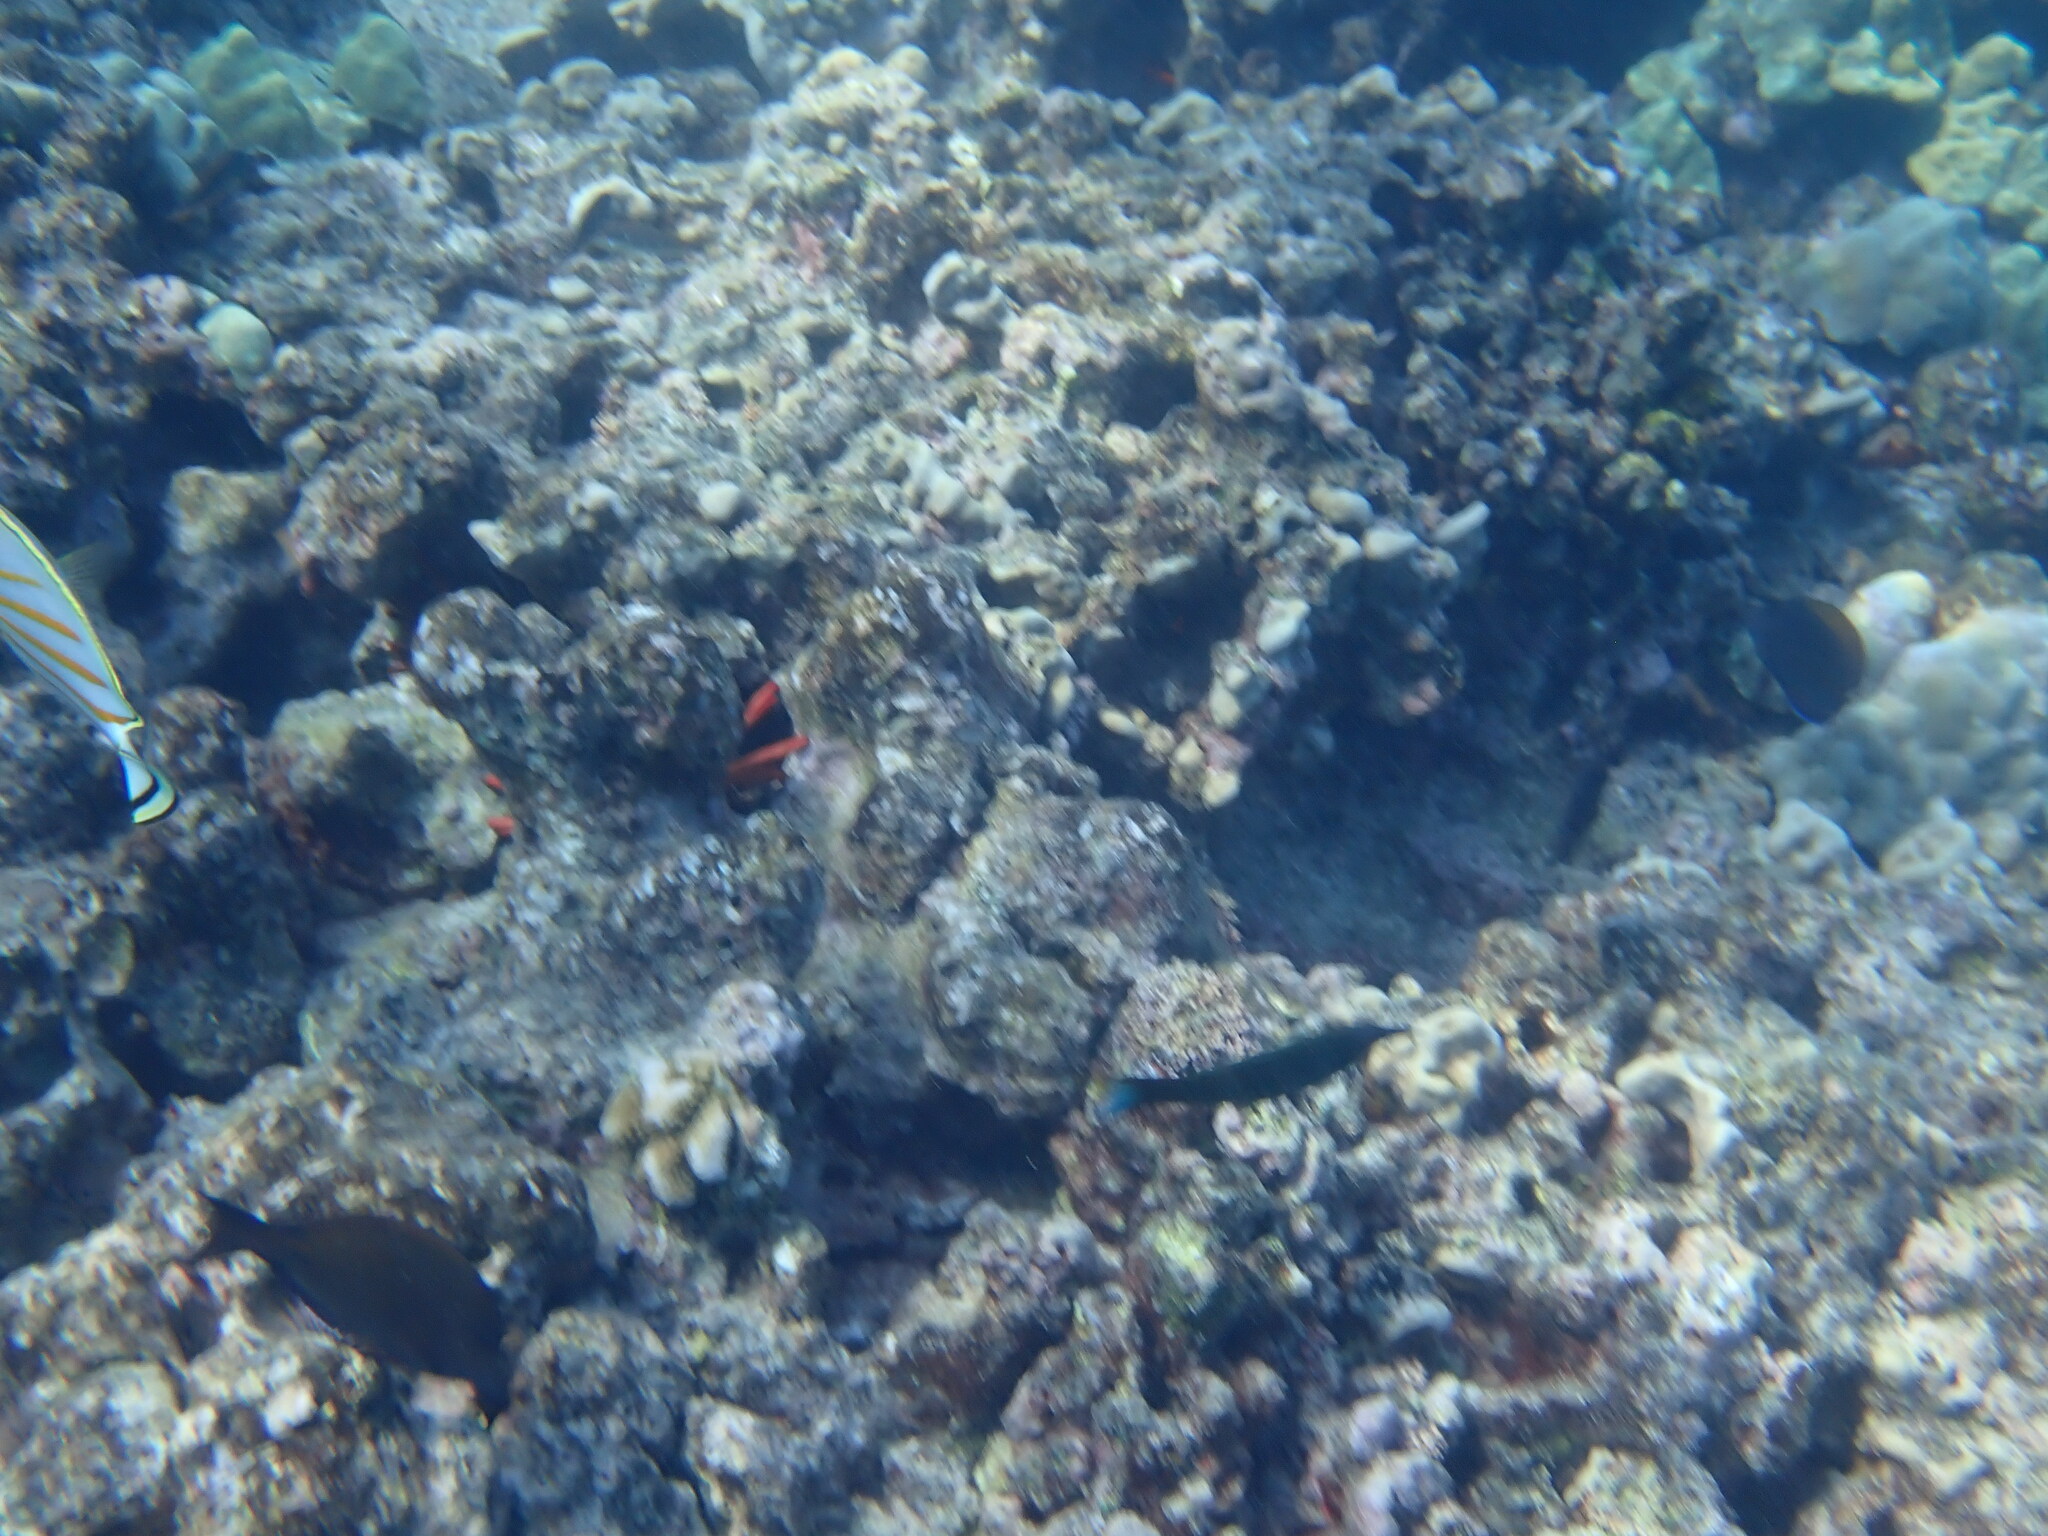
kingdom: Animalia
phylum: Chordata
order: Perciformes
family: Labridae
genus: Gomphosus
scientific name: Gomphosus varius
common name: Bird wrasse
